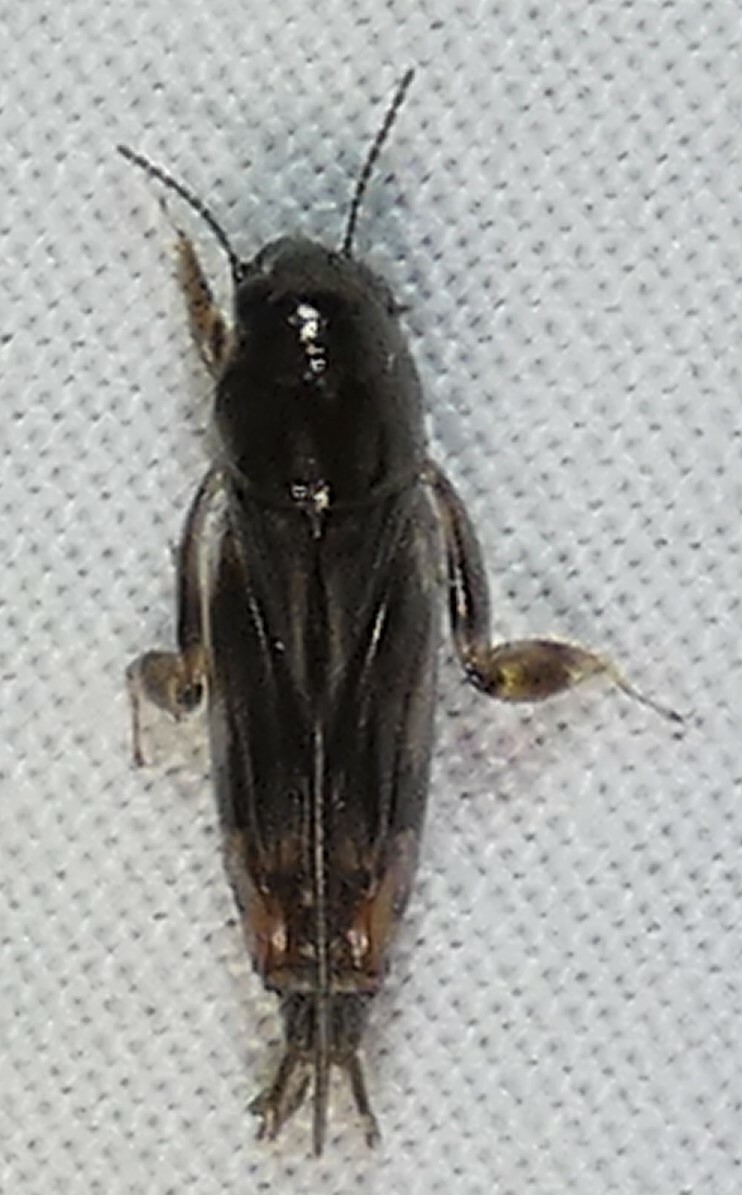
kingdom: Animalia
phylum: Arthropoda
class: Insecta
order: Orthoptera
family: Tridactylidae
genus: Neotridactylus
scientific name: Neotridactylus apicialis
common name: Larger pygmy locust
